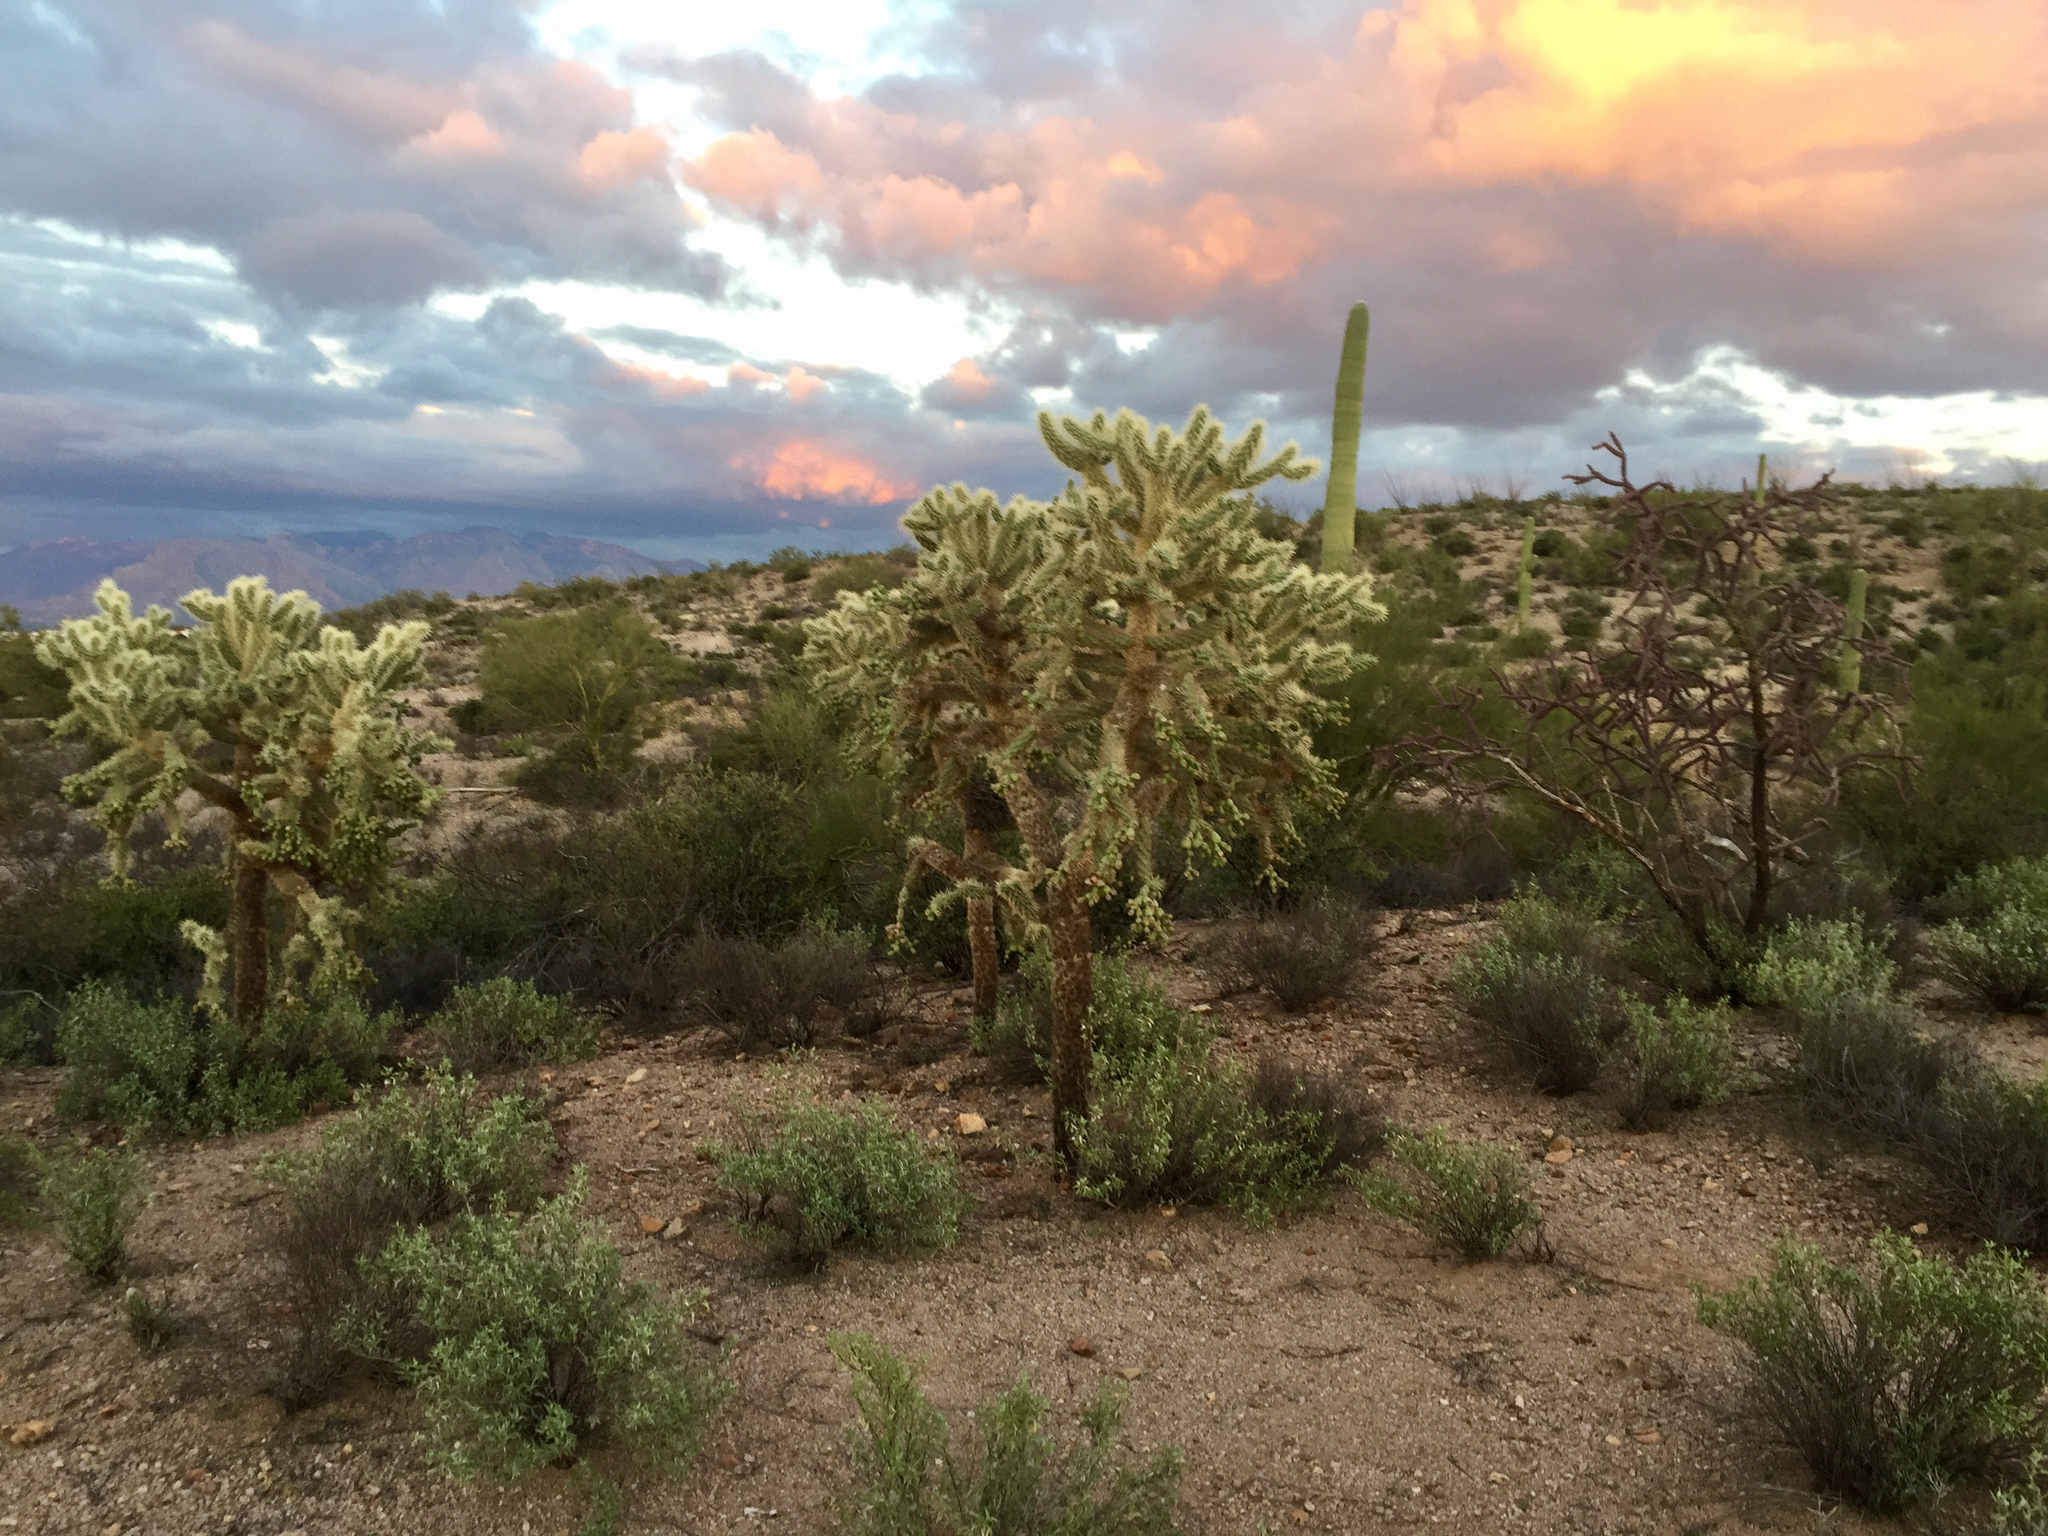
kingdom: Plantae
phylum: Tracheophyta
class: Magnoliopsida
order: Caryophyllales
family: Cactaceae
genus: Cylindropuntia
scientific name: Cylindropuntia fulgida
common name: Jumping cholla
